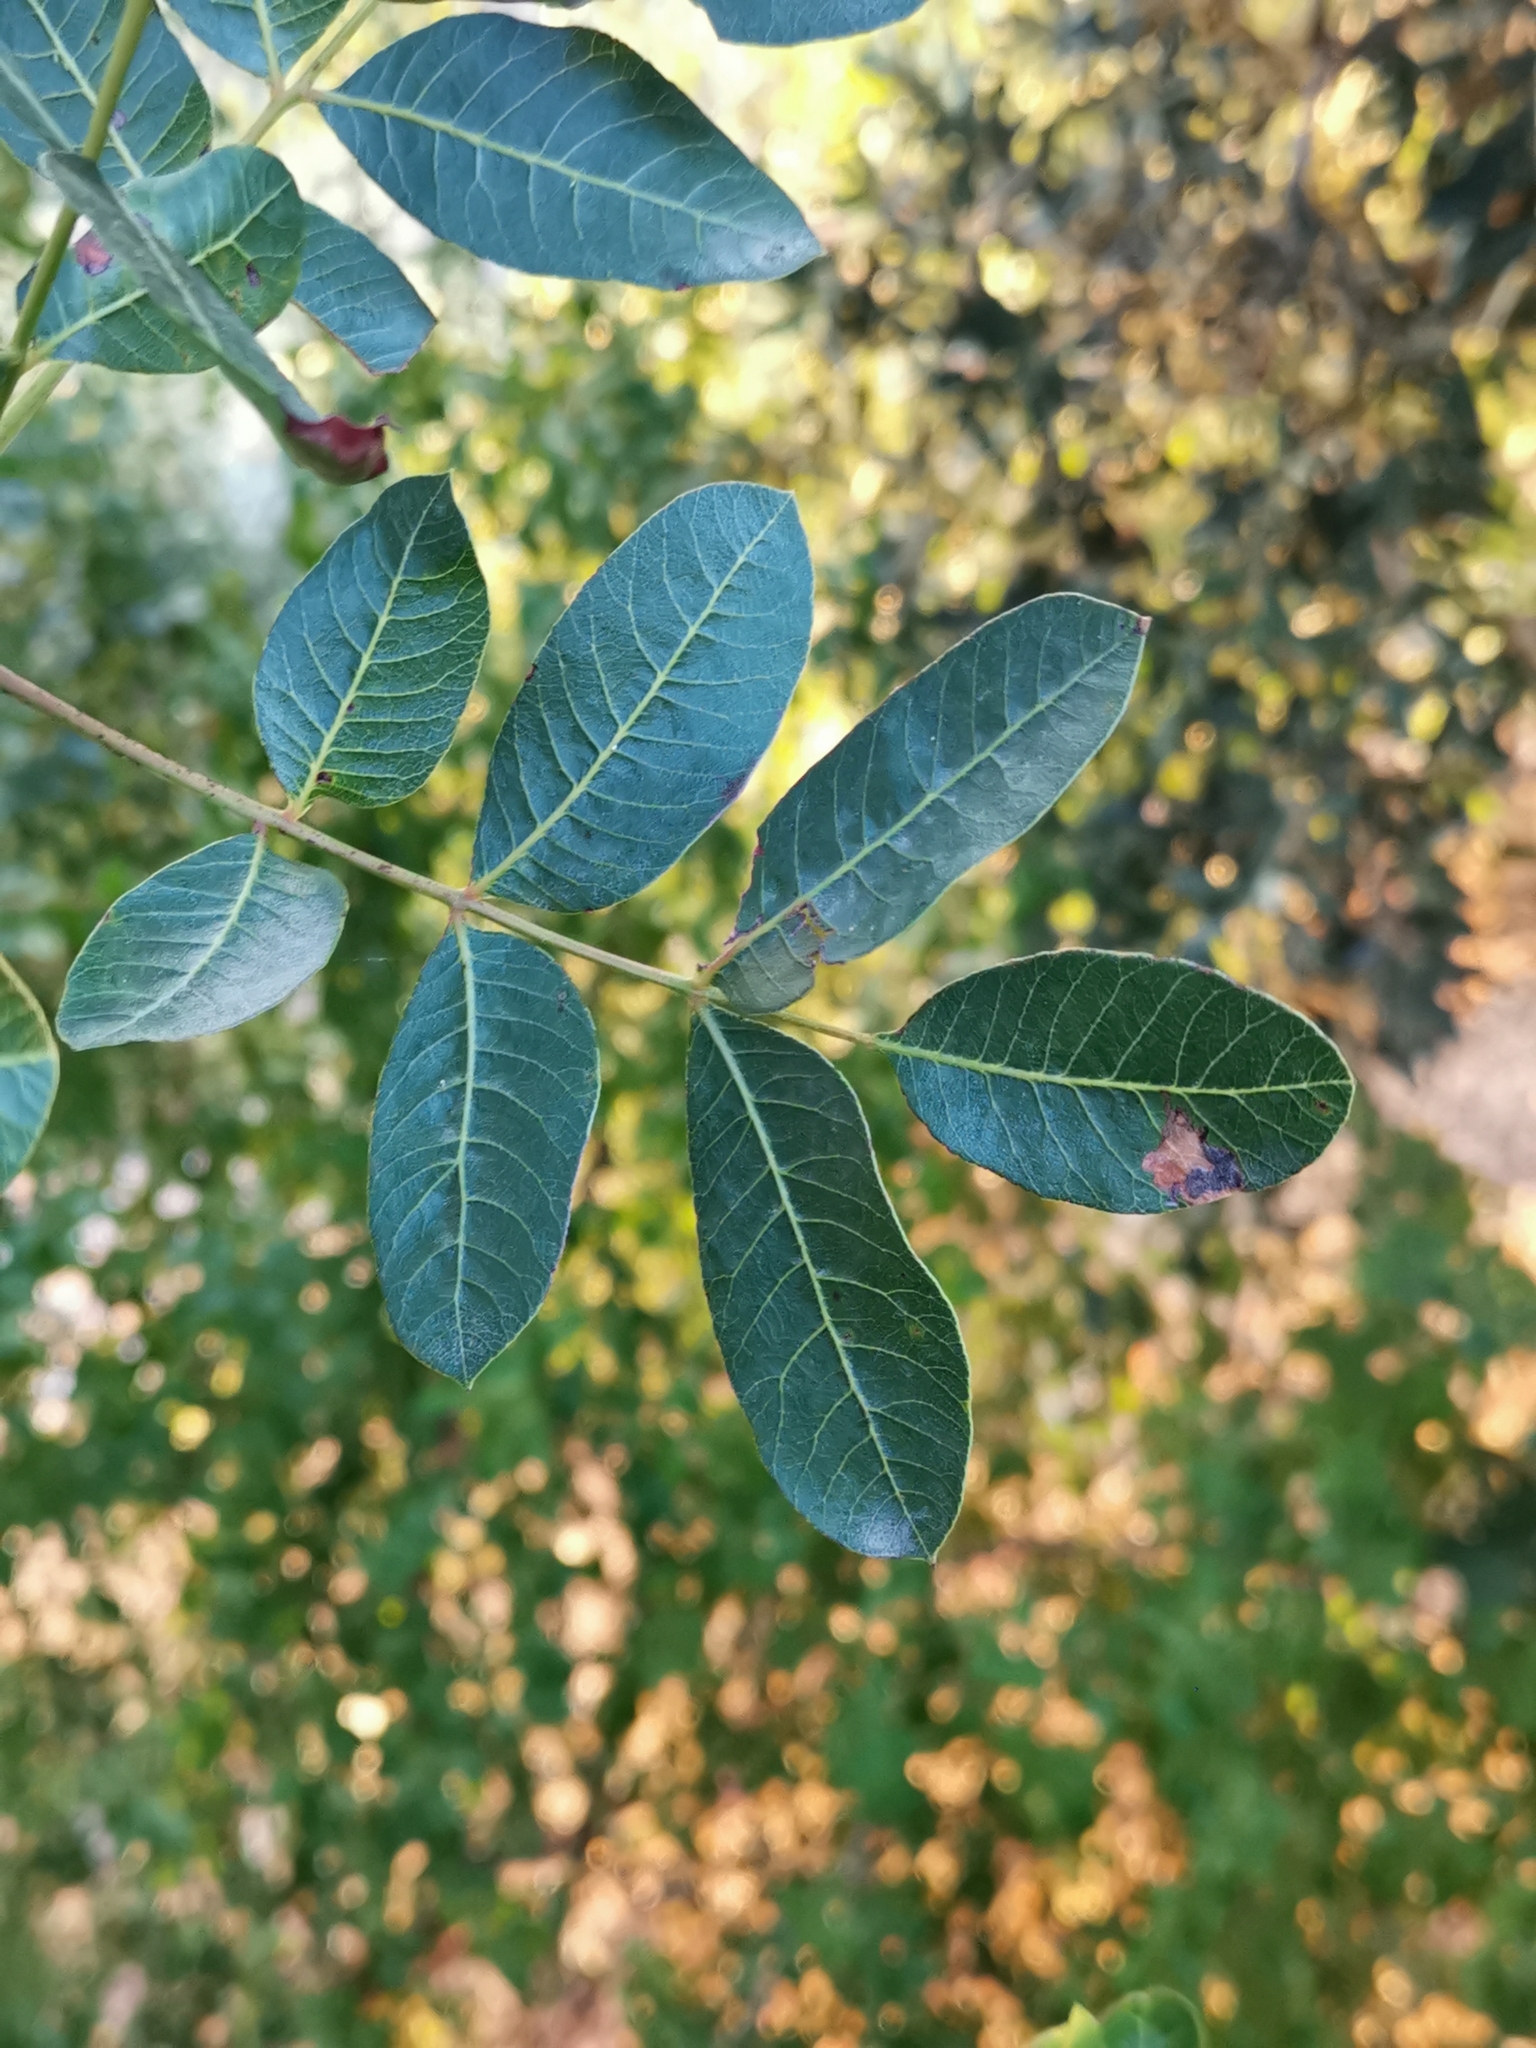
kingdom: Plantae
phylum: Tracheophyta
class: Magnoliopsida
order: Sapindales
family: Anacardiaceae
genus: Pistacia
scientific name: Pistacia terebinthus
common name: Terebinth
